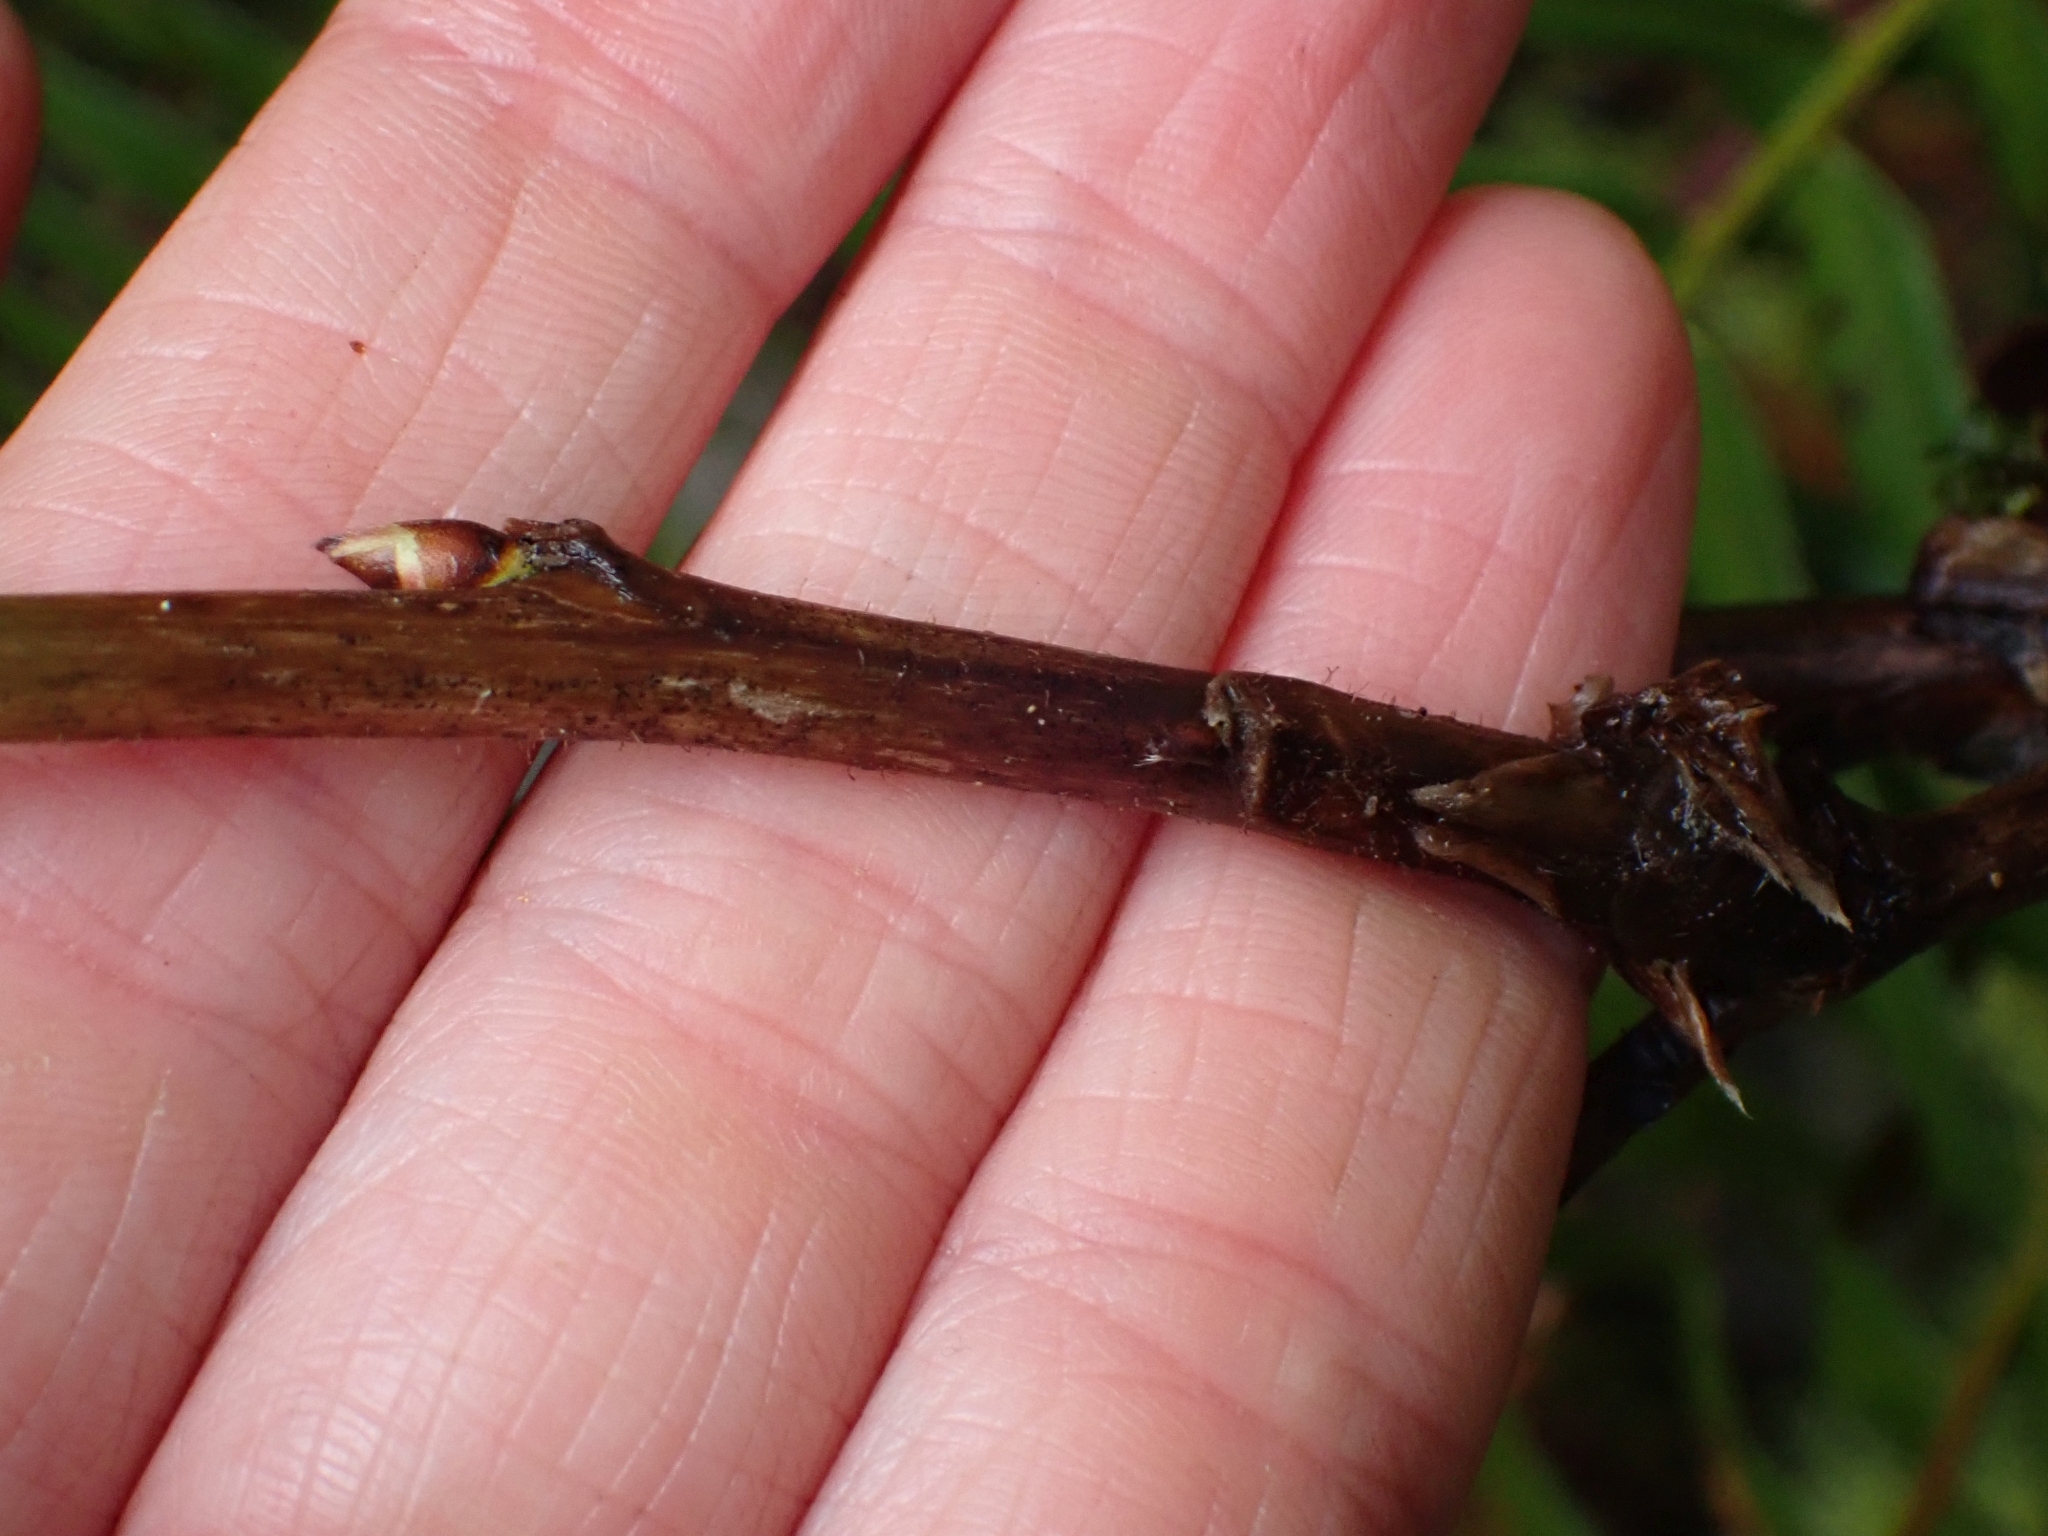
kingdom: Plantae
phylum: Tracheophyta
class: Magnoliopsida
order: Rosales
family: Rosaceae
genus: Rubus
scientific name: Rubus parviflorus
